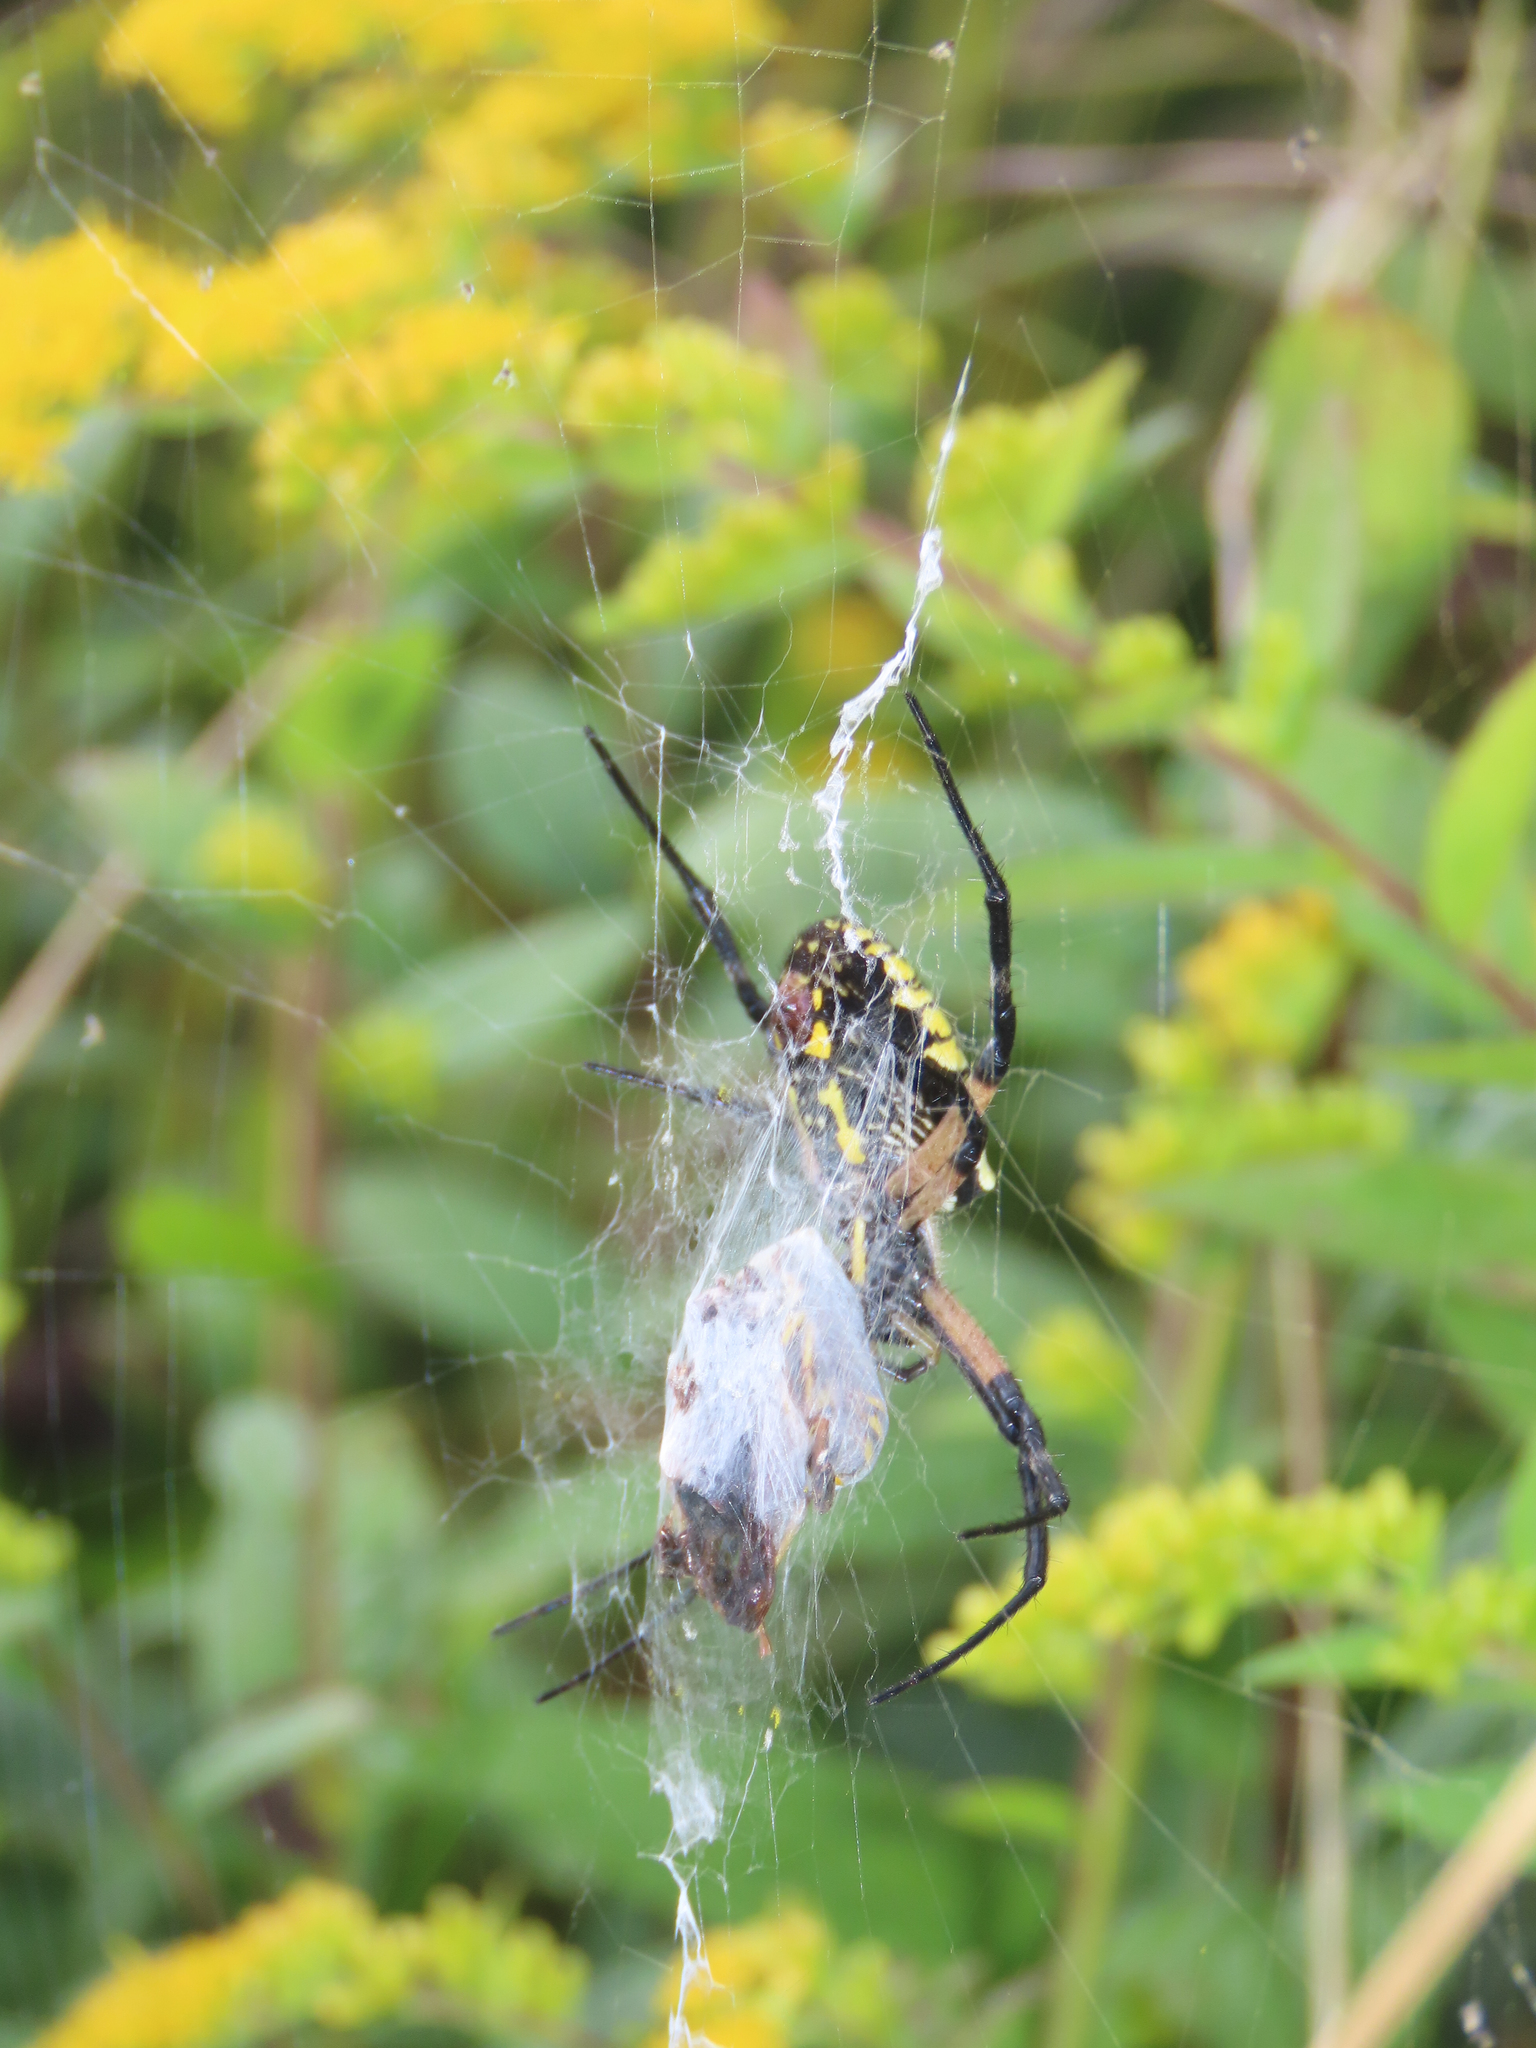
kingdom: Animalia
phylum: Arthropoda
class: Arachnida
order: Araneae
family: Araneidae
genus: Argiope
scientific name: Argiope aurantia
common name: Orb weavers
